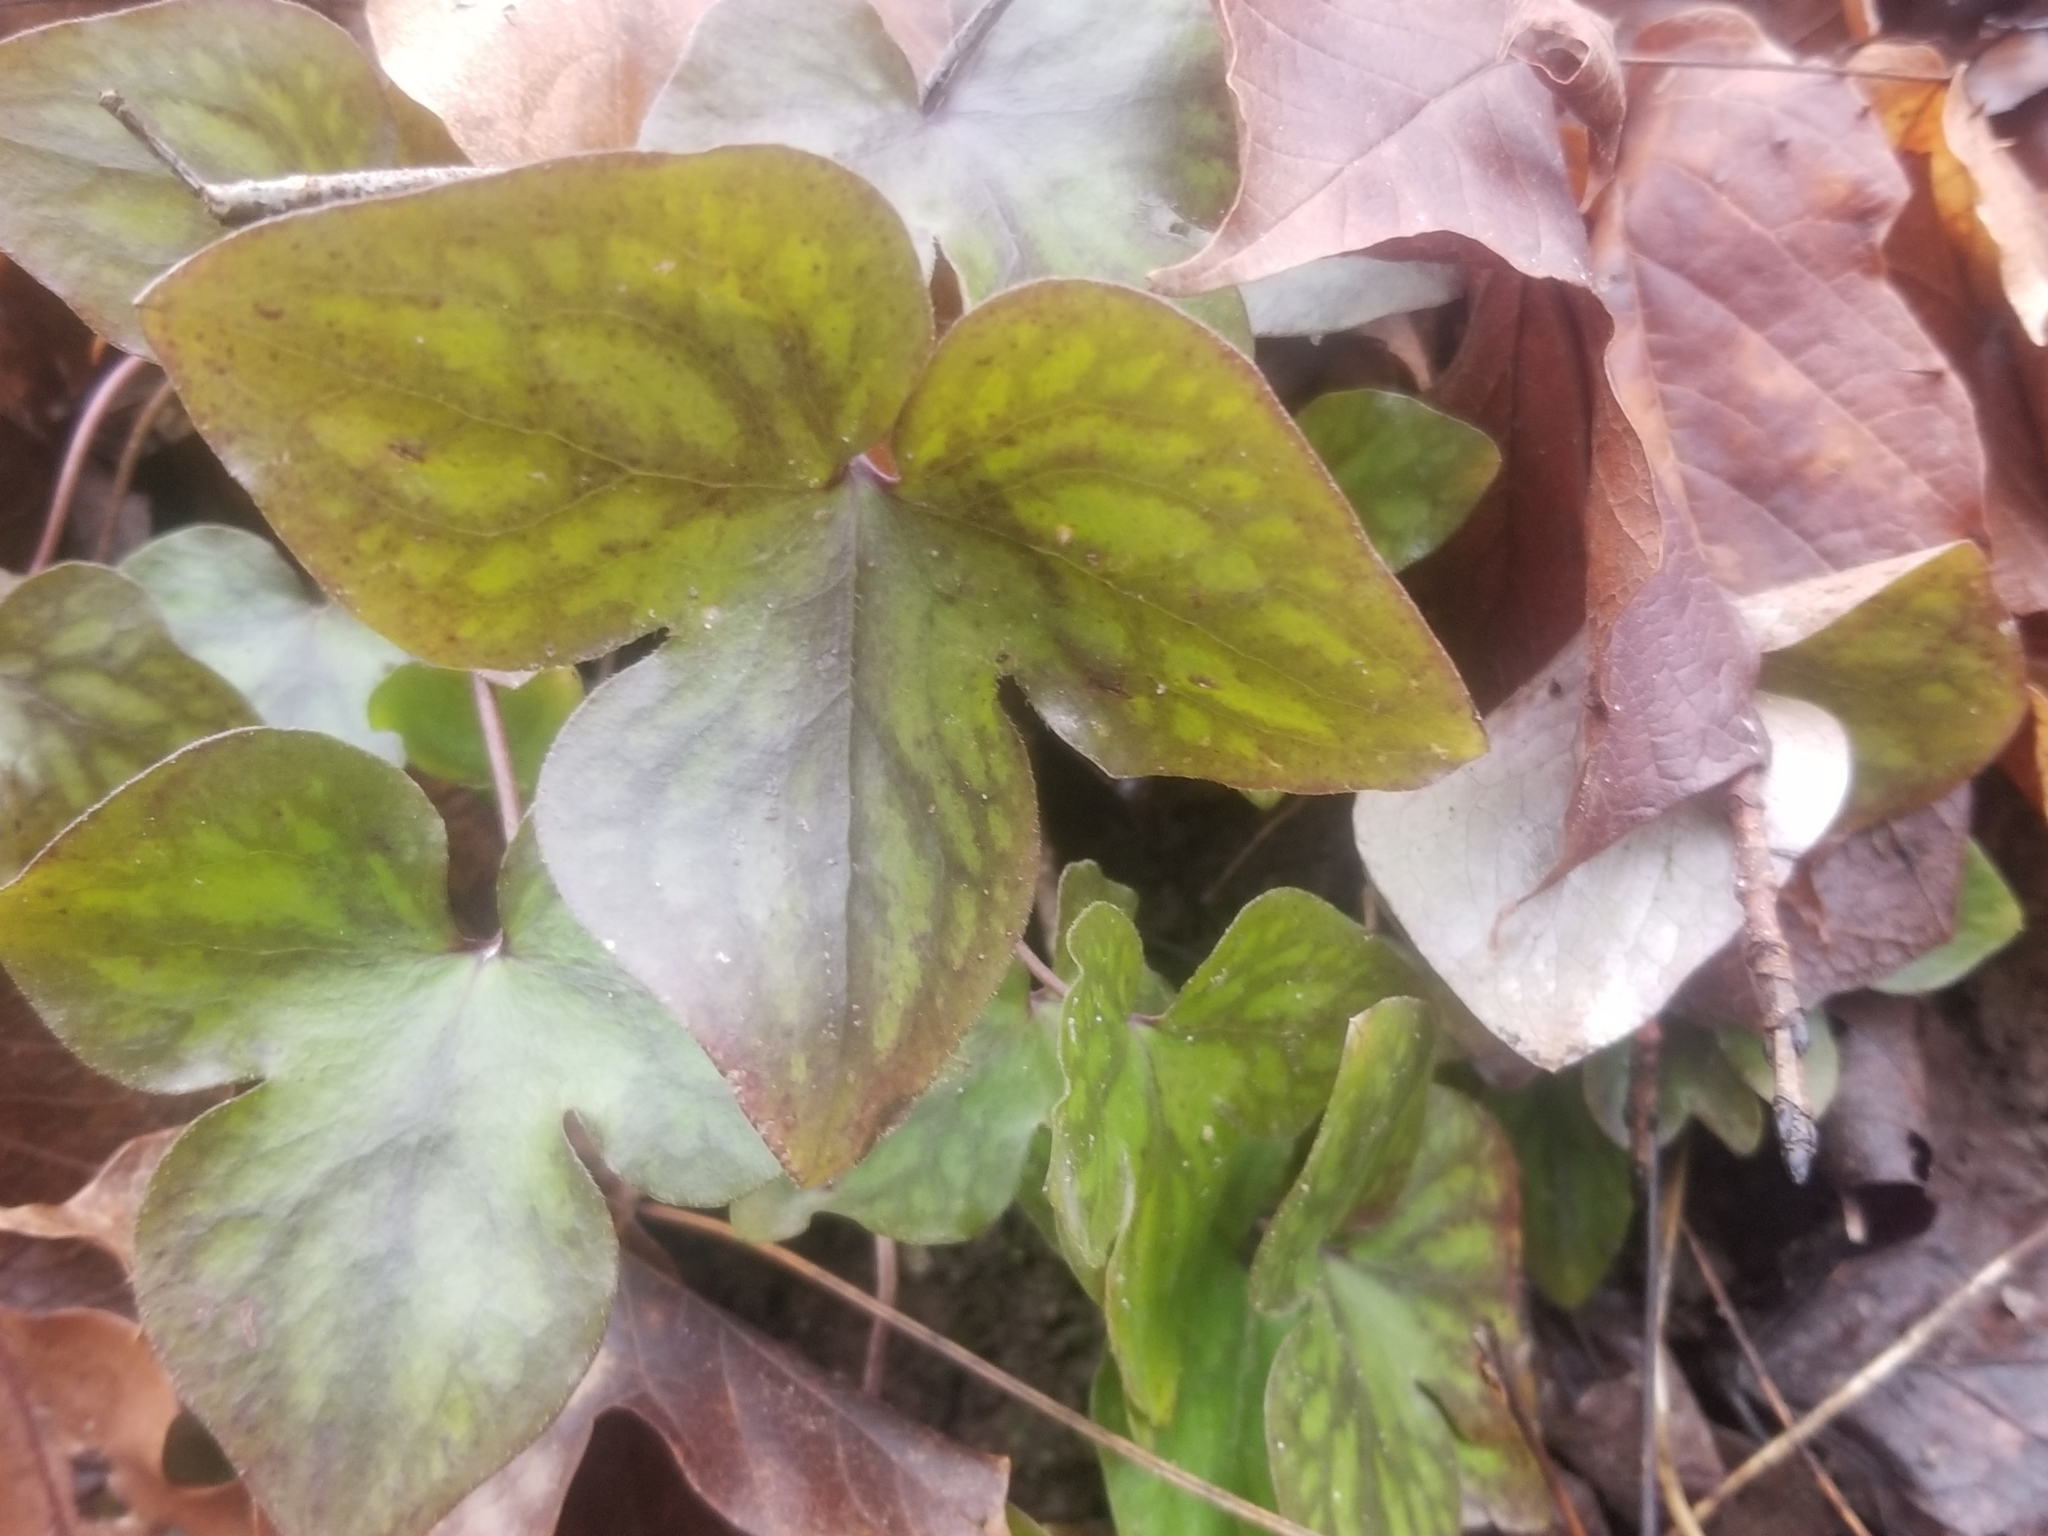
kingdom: Plantae
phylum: Tracheophyta
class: Magnoliopsida
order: Ranunculales
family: Ranunculaceae
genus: Hepatica
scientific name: Hepatica acutiloba
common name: Sharp-lobed hepatica
